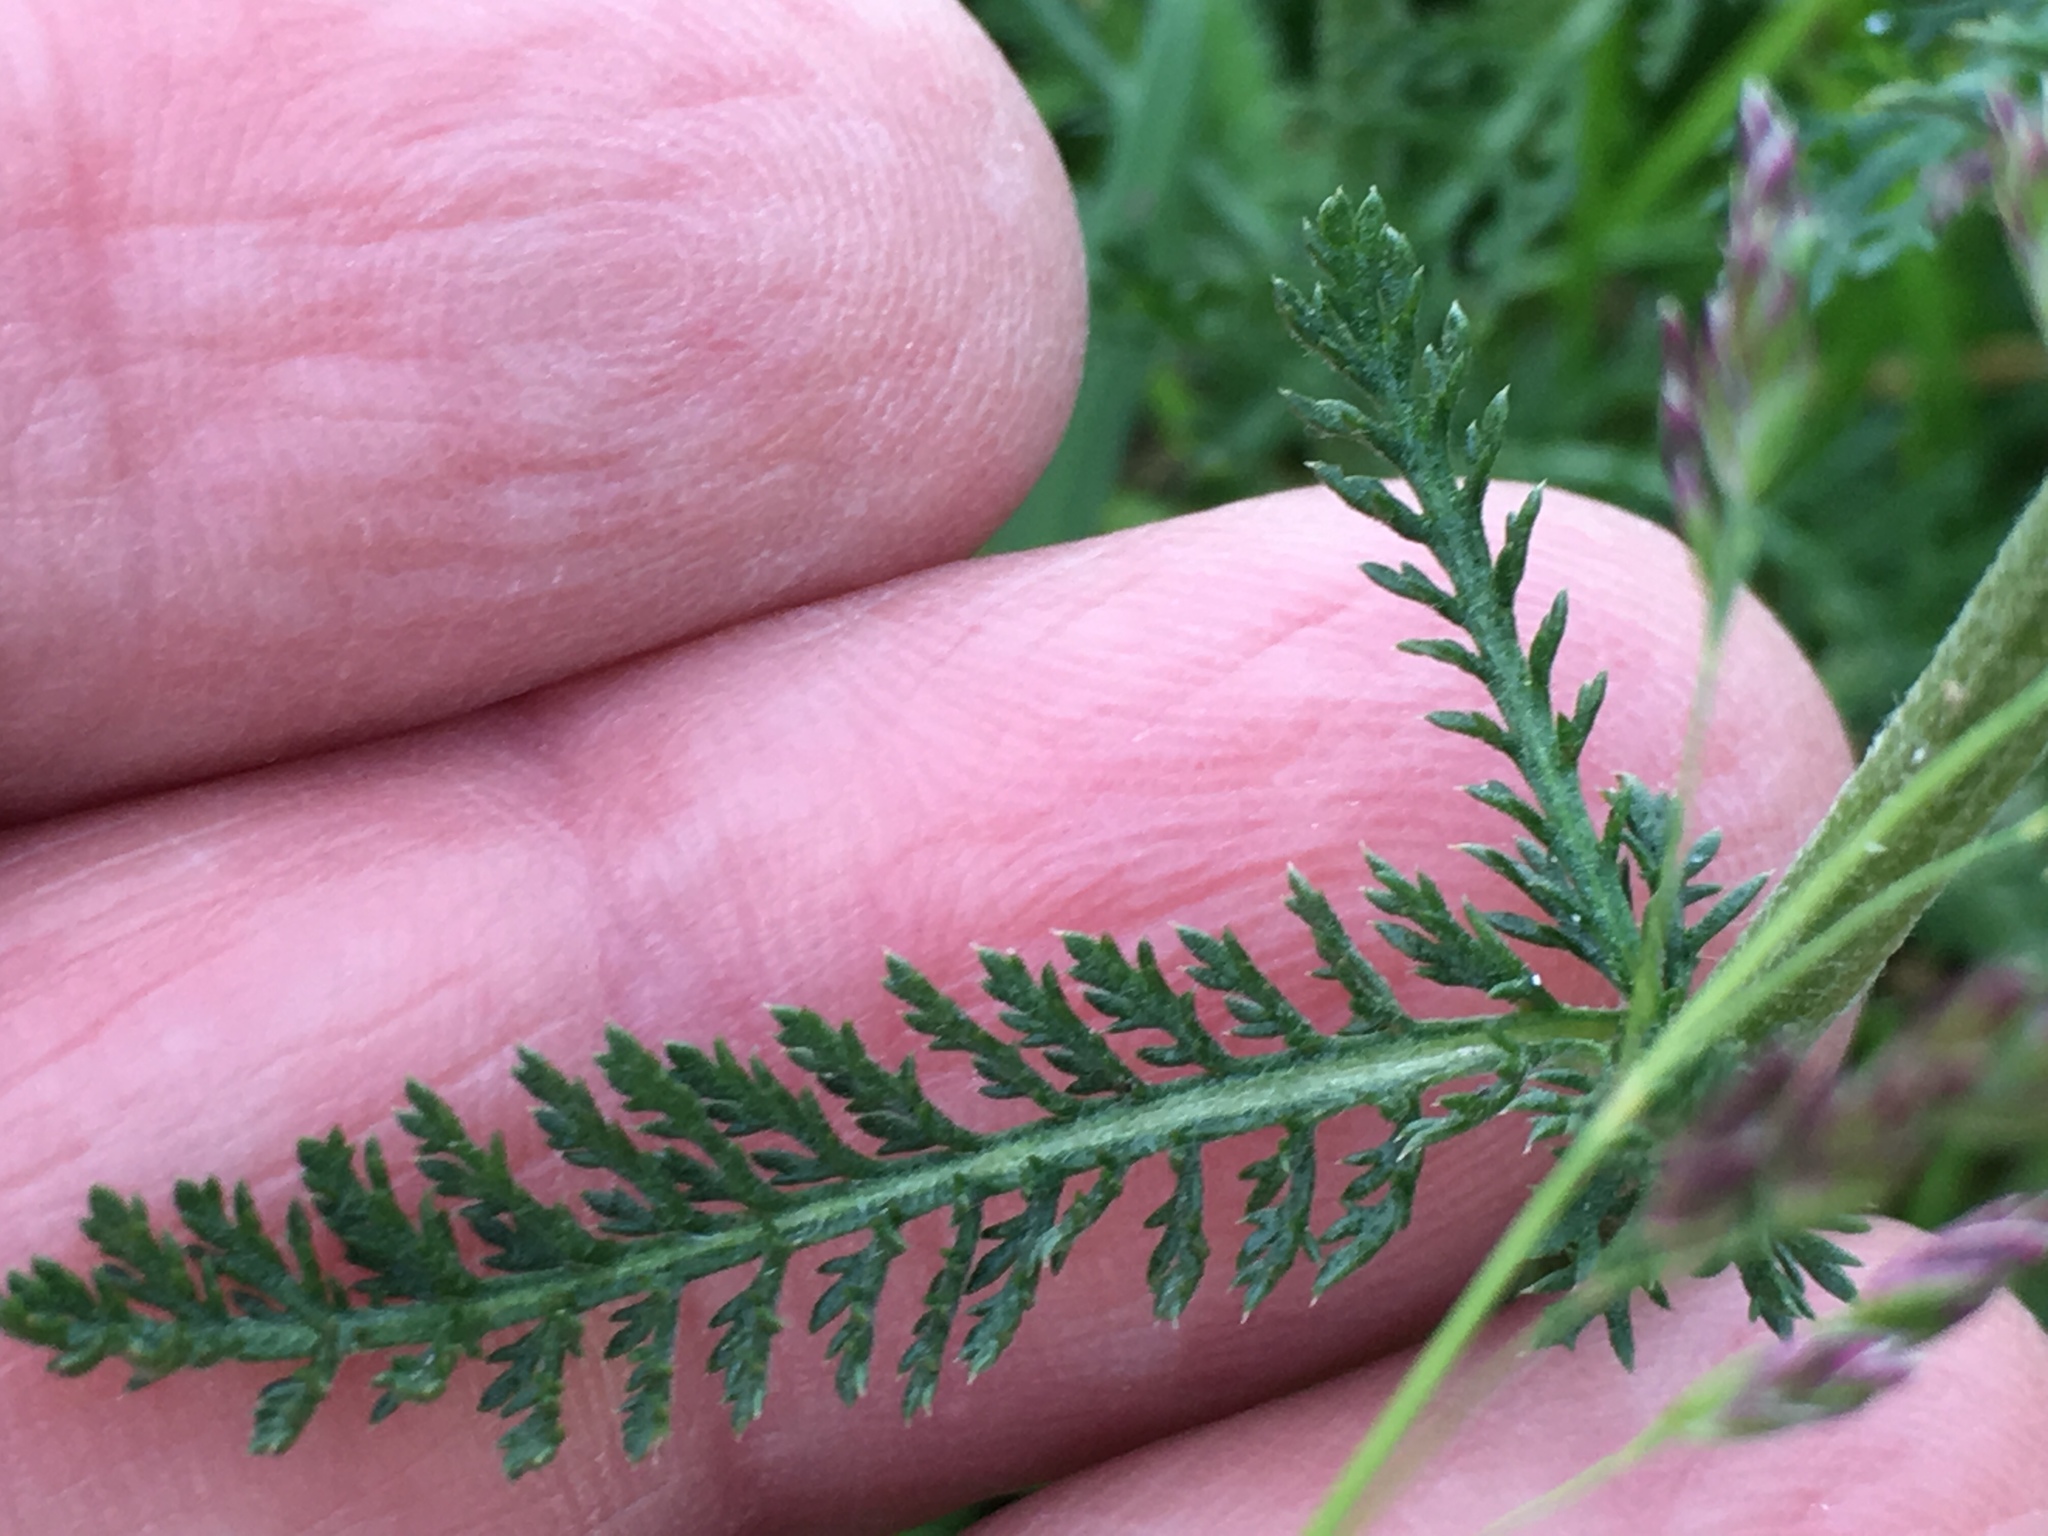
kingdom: Plantae
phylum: Tracheophyta
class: Magnoliopsida
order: Asterales
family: Asteraceae
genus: Achillea
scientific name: Achillea millefolium
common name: Yarrow
